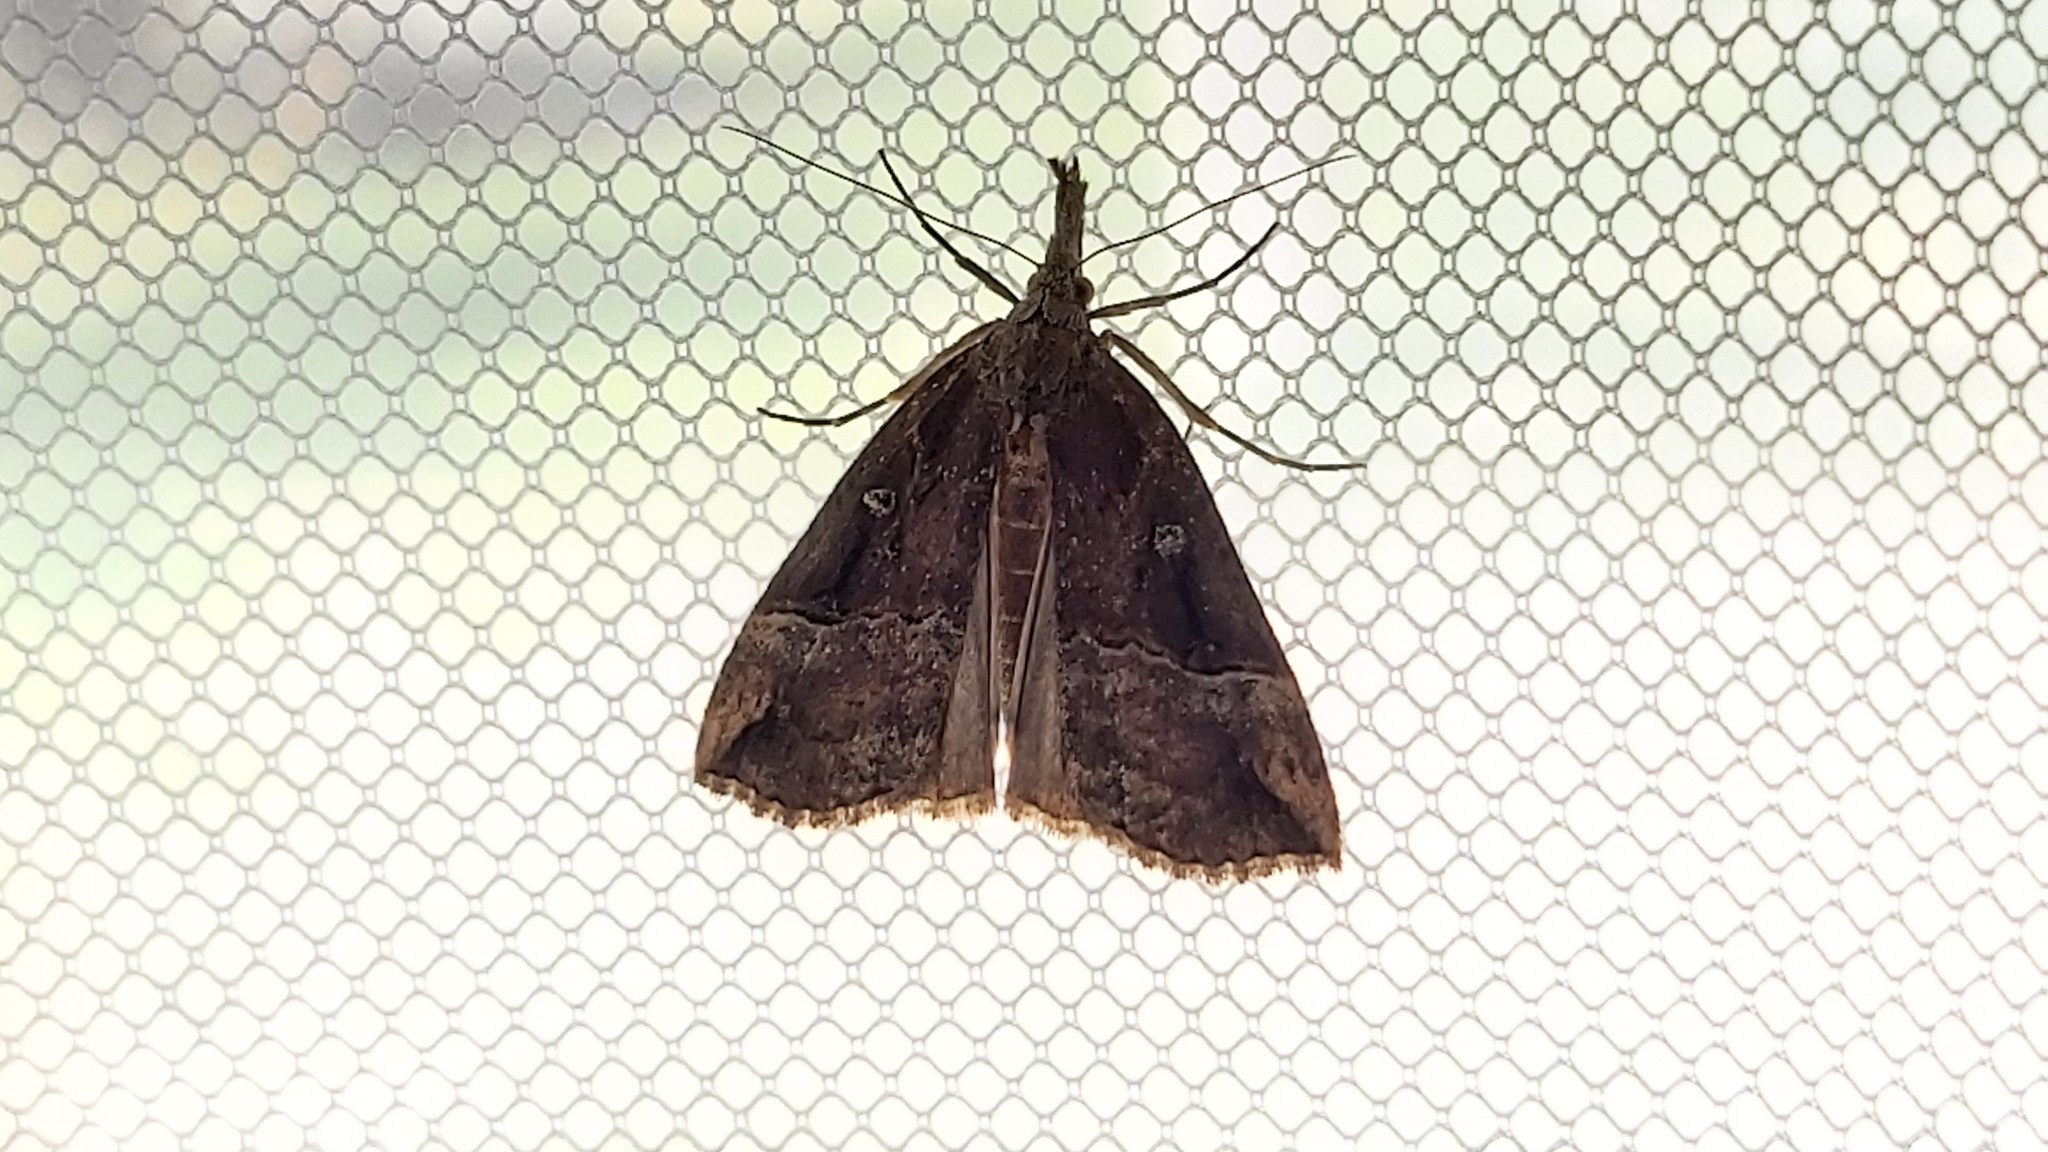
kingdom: Animalia
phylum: Arthropoda
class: Insecta
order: Lepidoptera
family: Erebidae
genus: Hypena
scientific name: Hypena rostralis
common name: Buttoned snout
